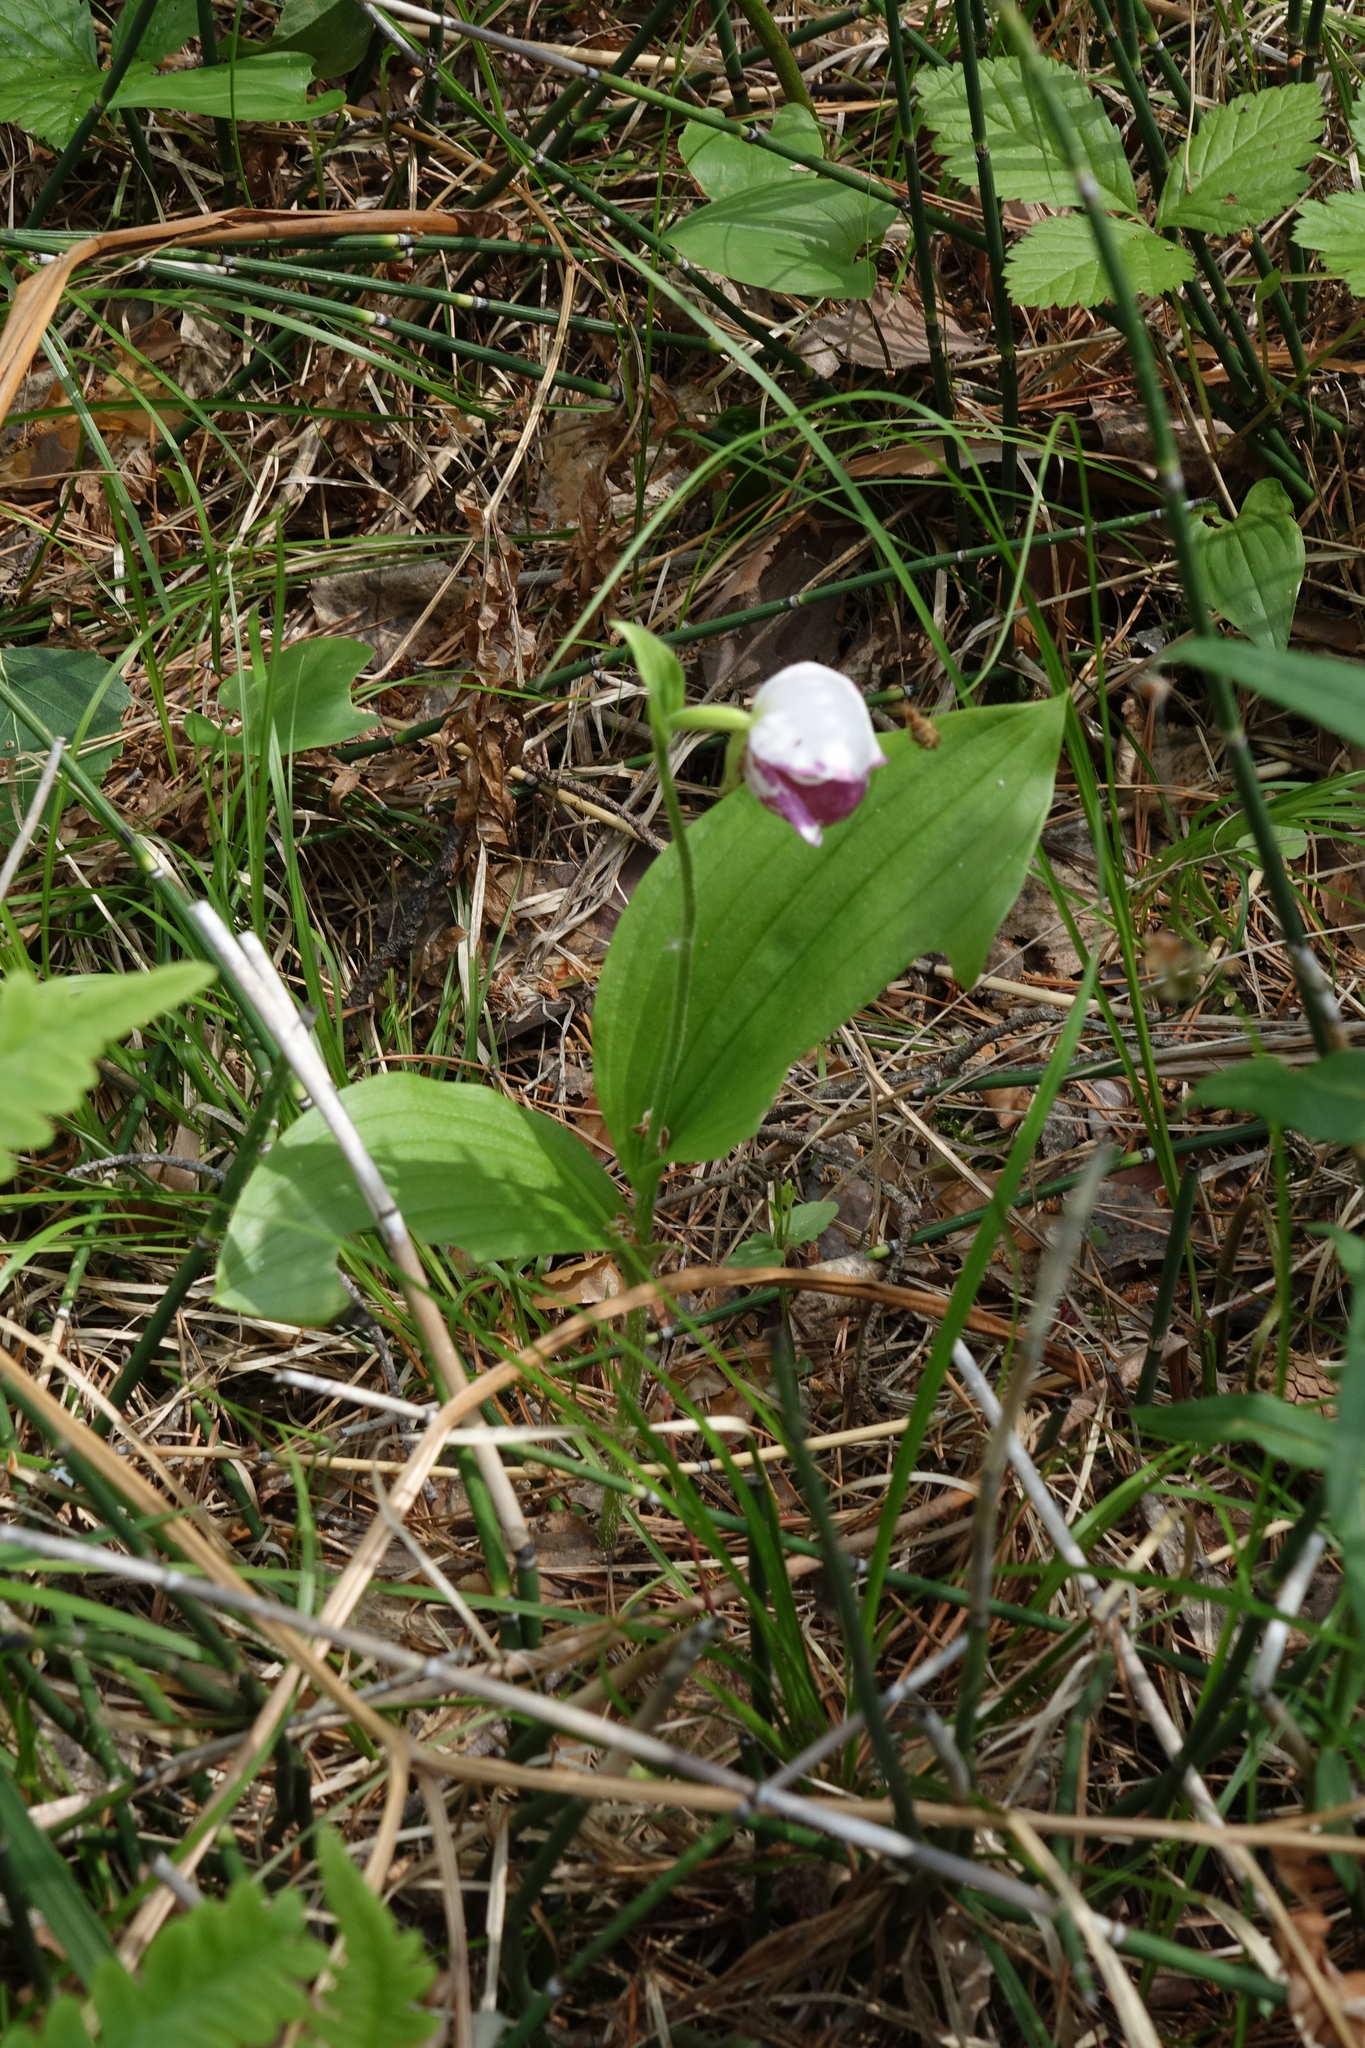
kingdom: Plantae
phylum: Tracheophyta
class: Liliopsida
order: Asparagales
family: Orchidaceae
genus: Cypripedium
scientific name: Cypripedium guttatum
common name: Pink lady slipper
